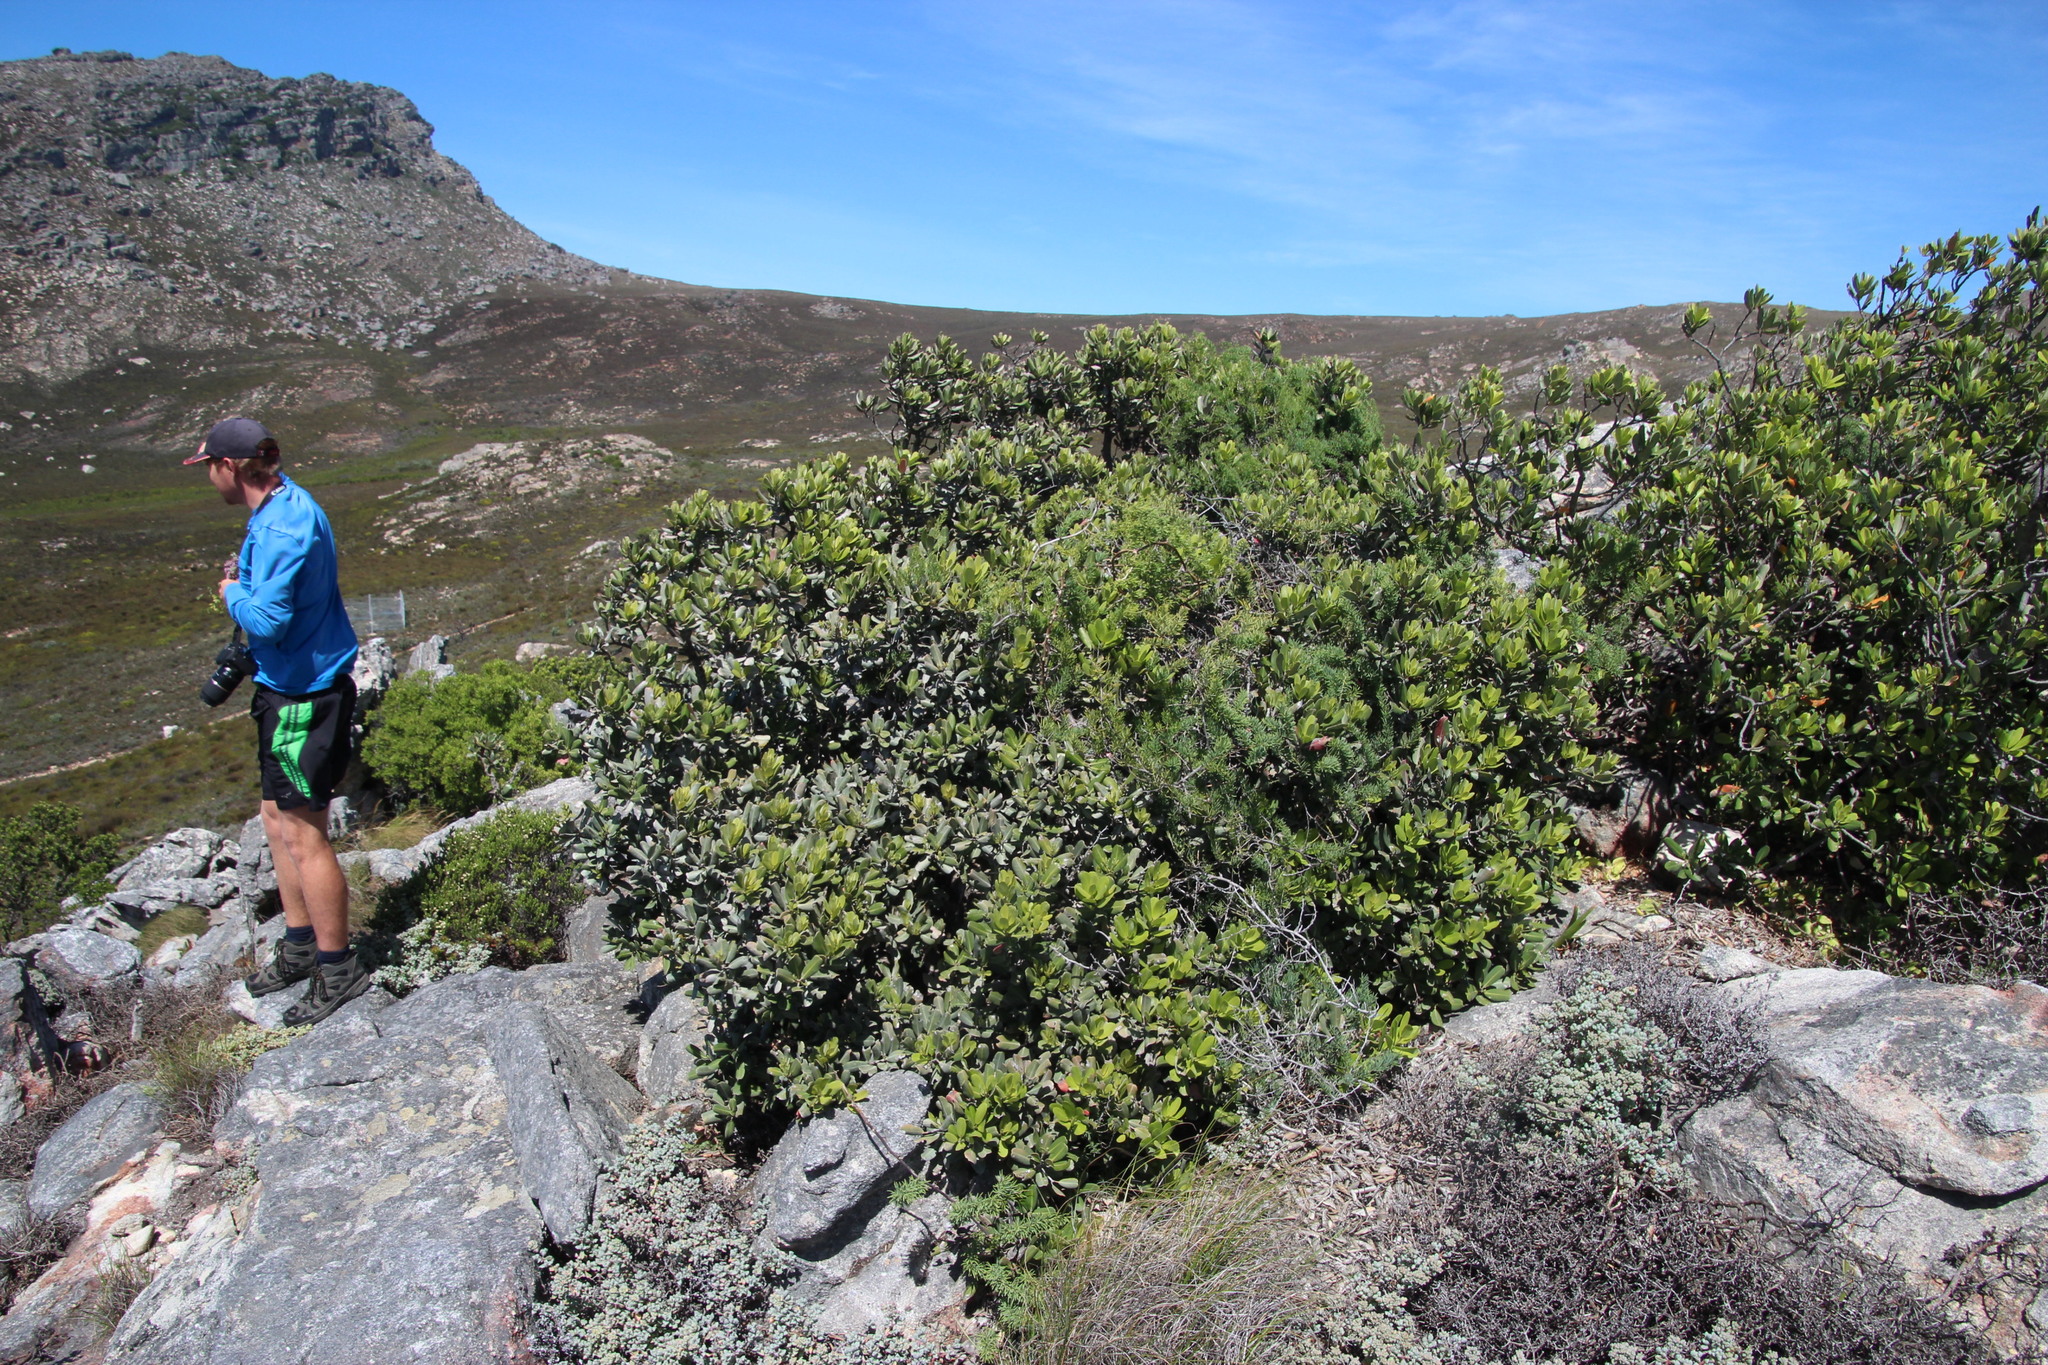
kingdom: Plantae
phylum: Tracheophyta
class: Magnoliopsida
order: Sapindales
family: Anacardiaceae
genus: Heeria
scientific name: Heeria argentea
